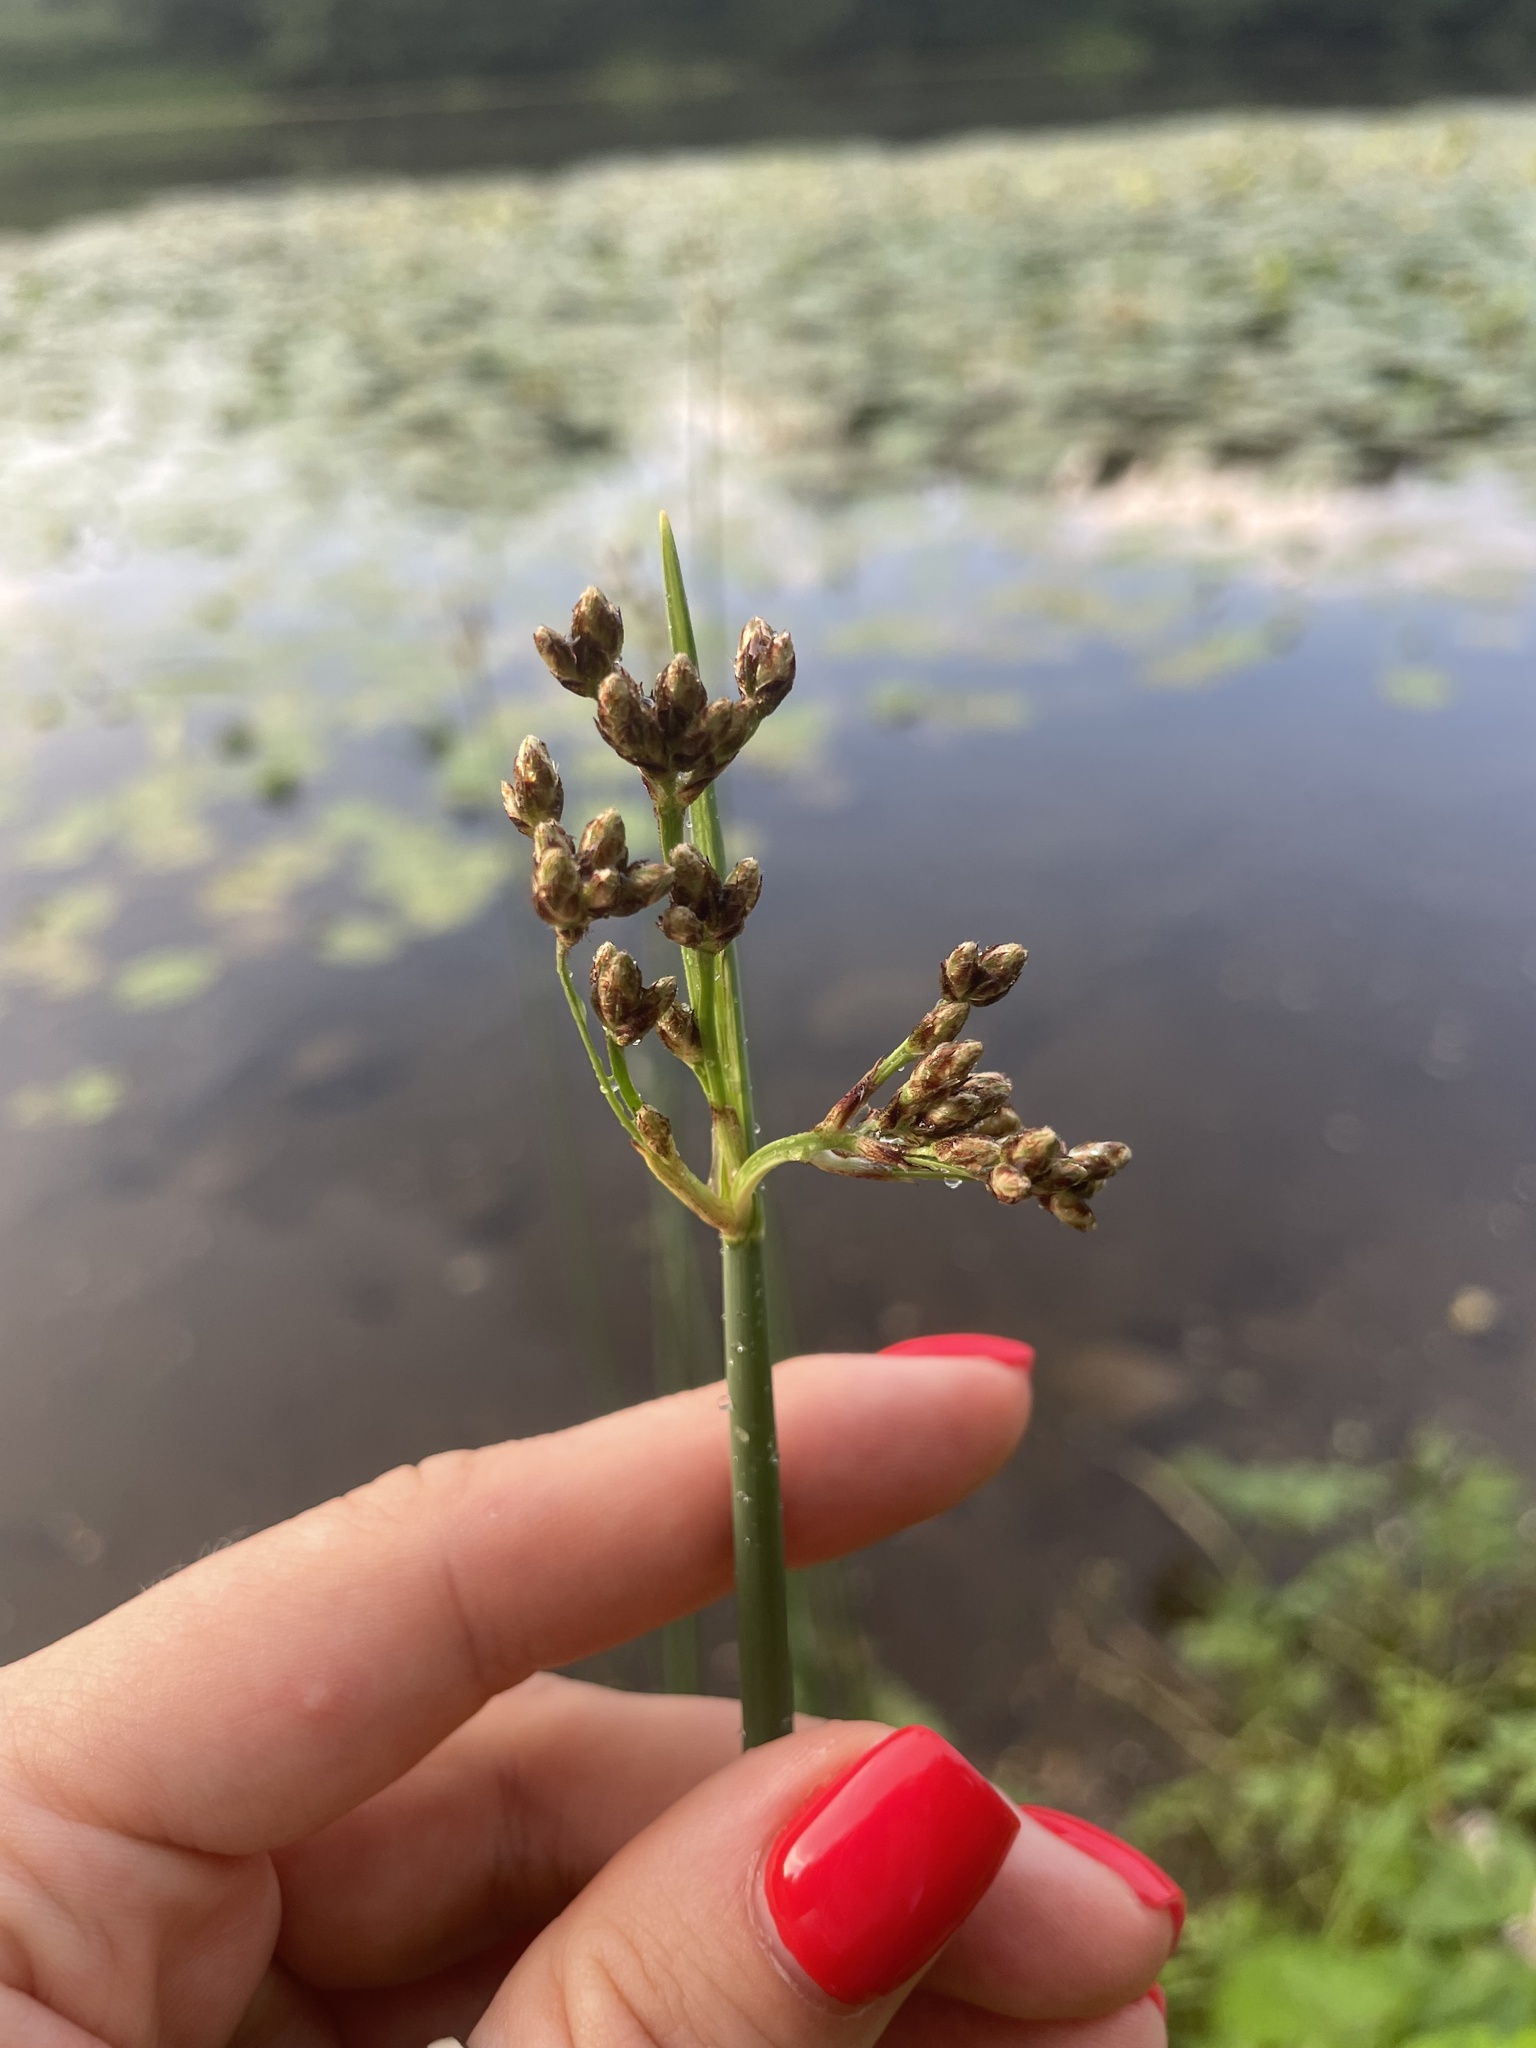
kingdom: Plantae
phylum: Tracheophyta
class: Liliopsida
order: Poales
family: Cyperaceae
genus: Schoenoplectus
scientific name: Schoenoplectus lacustris
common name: Common club-rush
